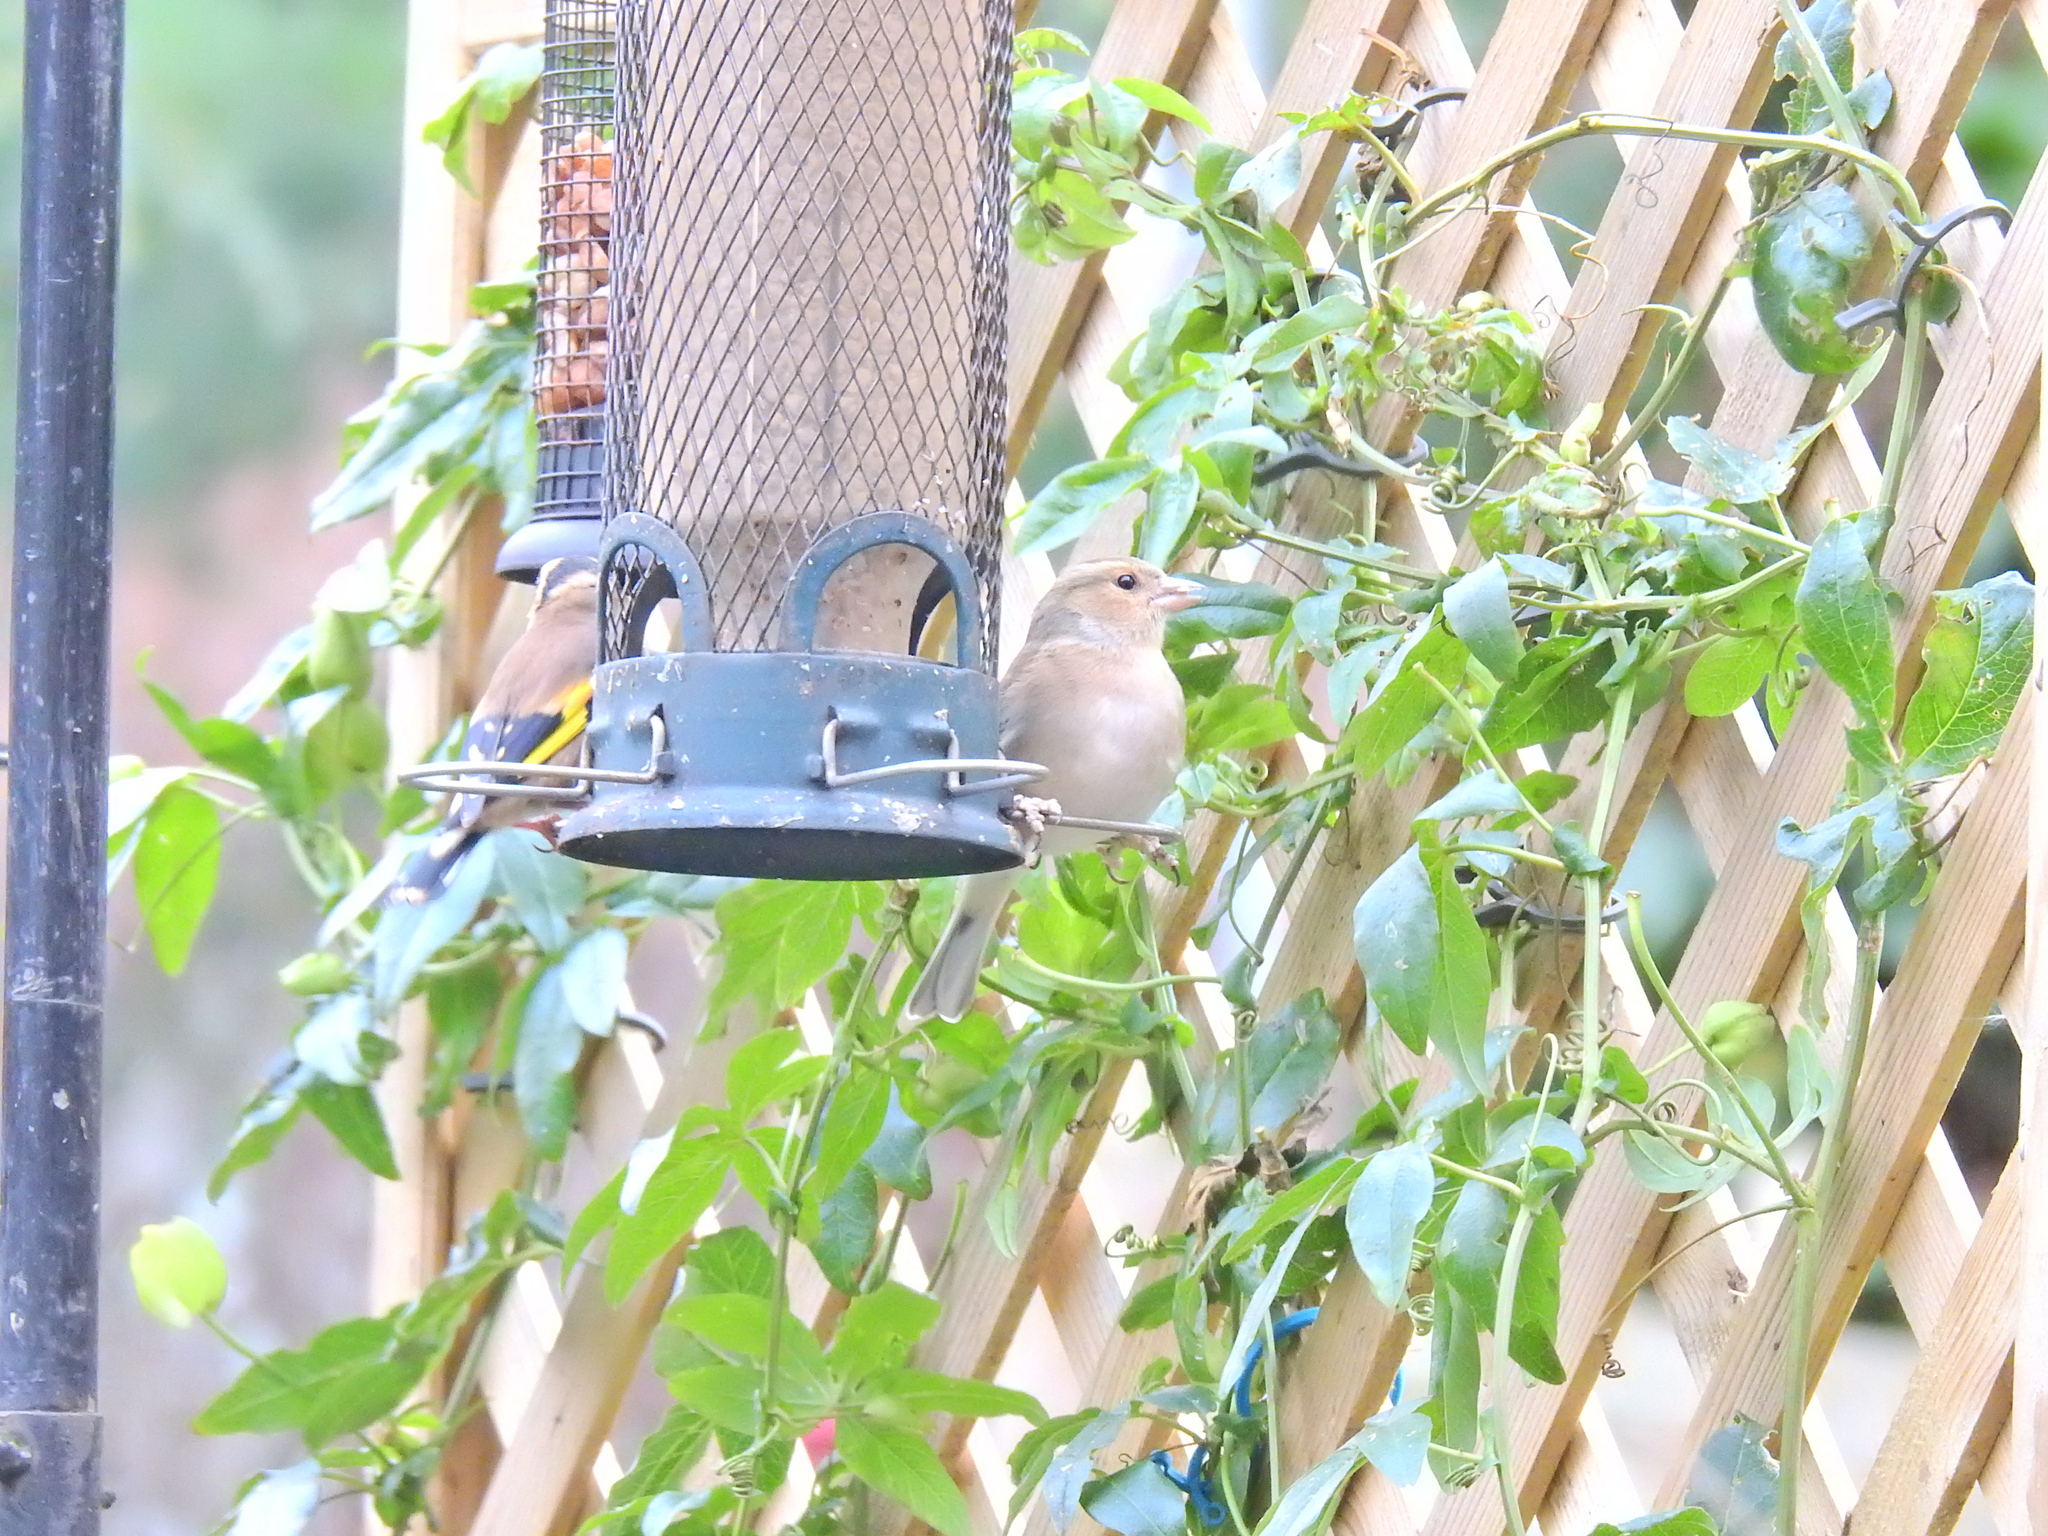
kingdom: Animalia
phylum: Chordata
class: Aves
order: Passeriformes
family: Fringillidae
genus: Fringilla
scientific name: Fringilla coelebs
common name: Common chaffinch
